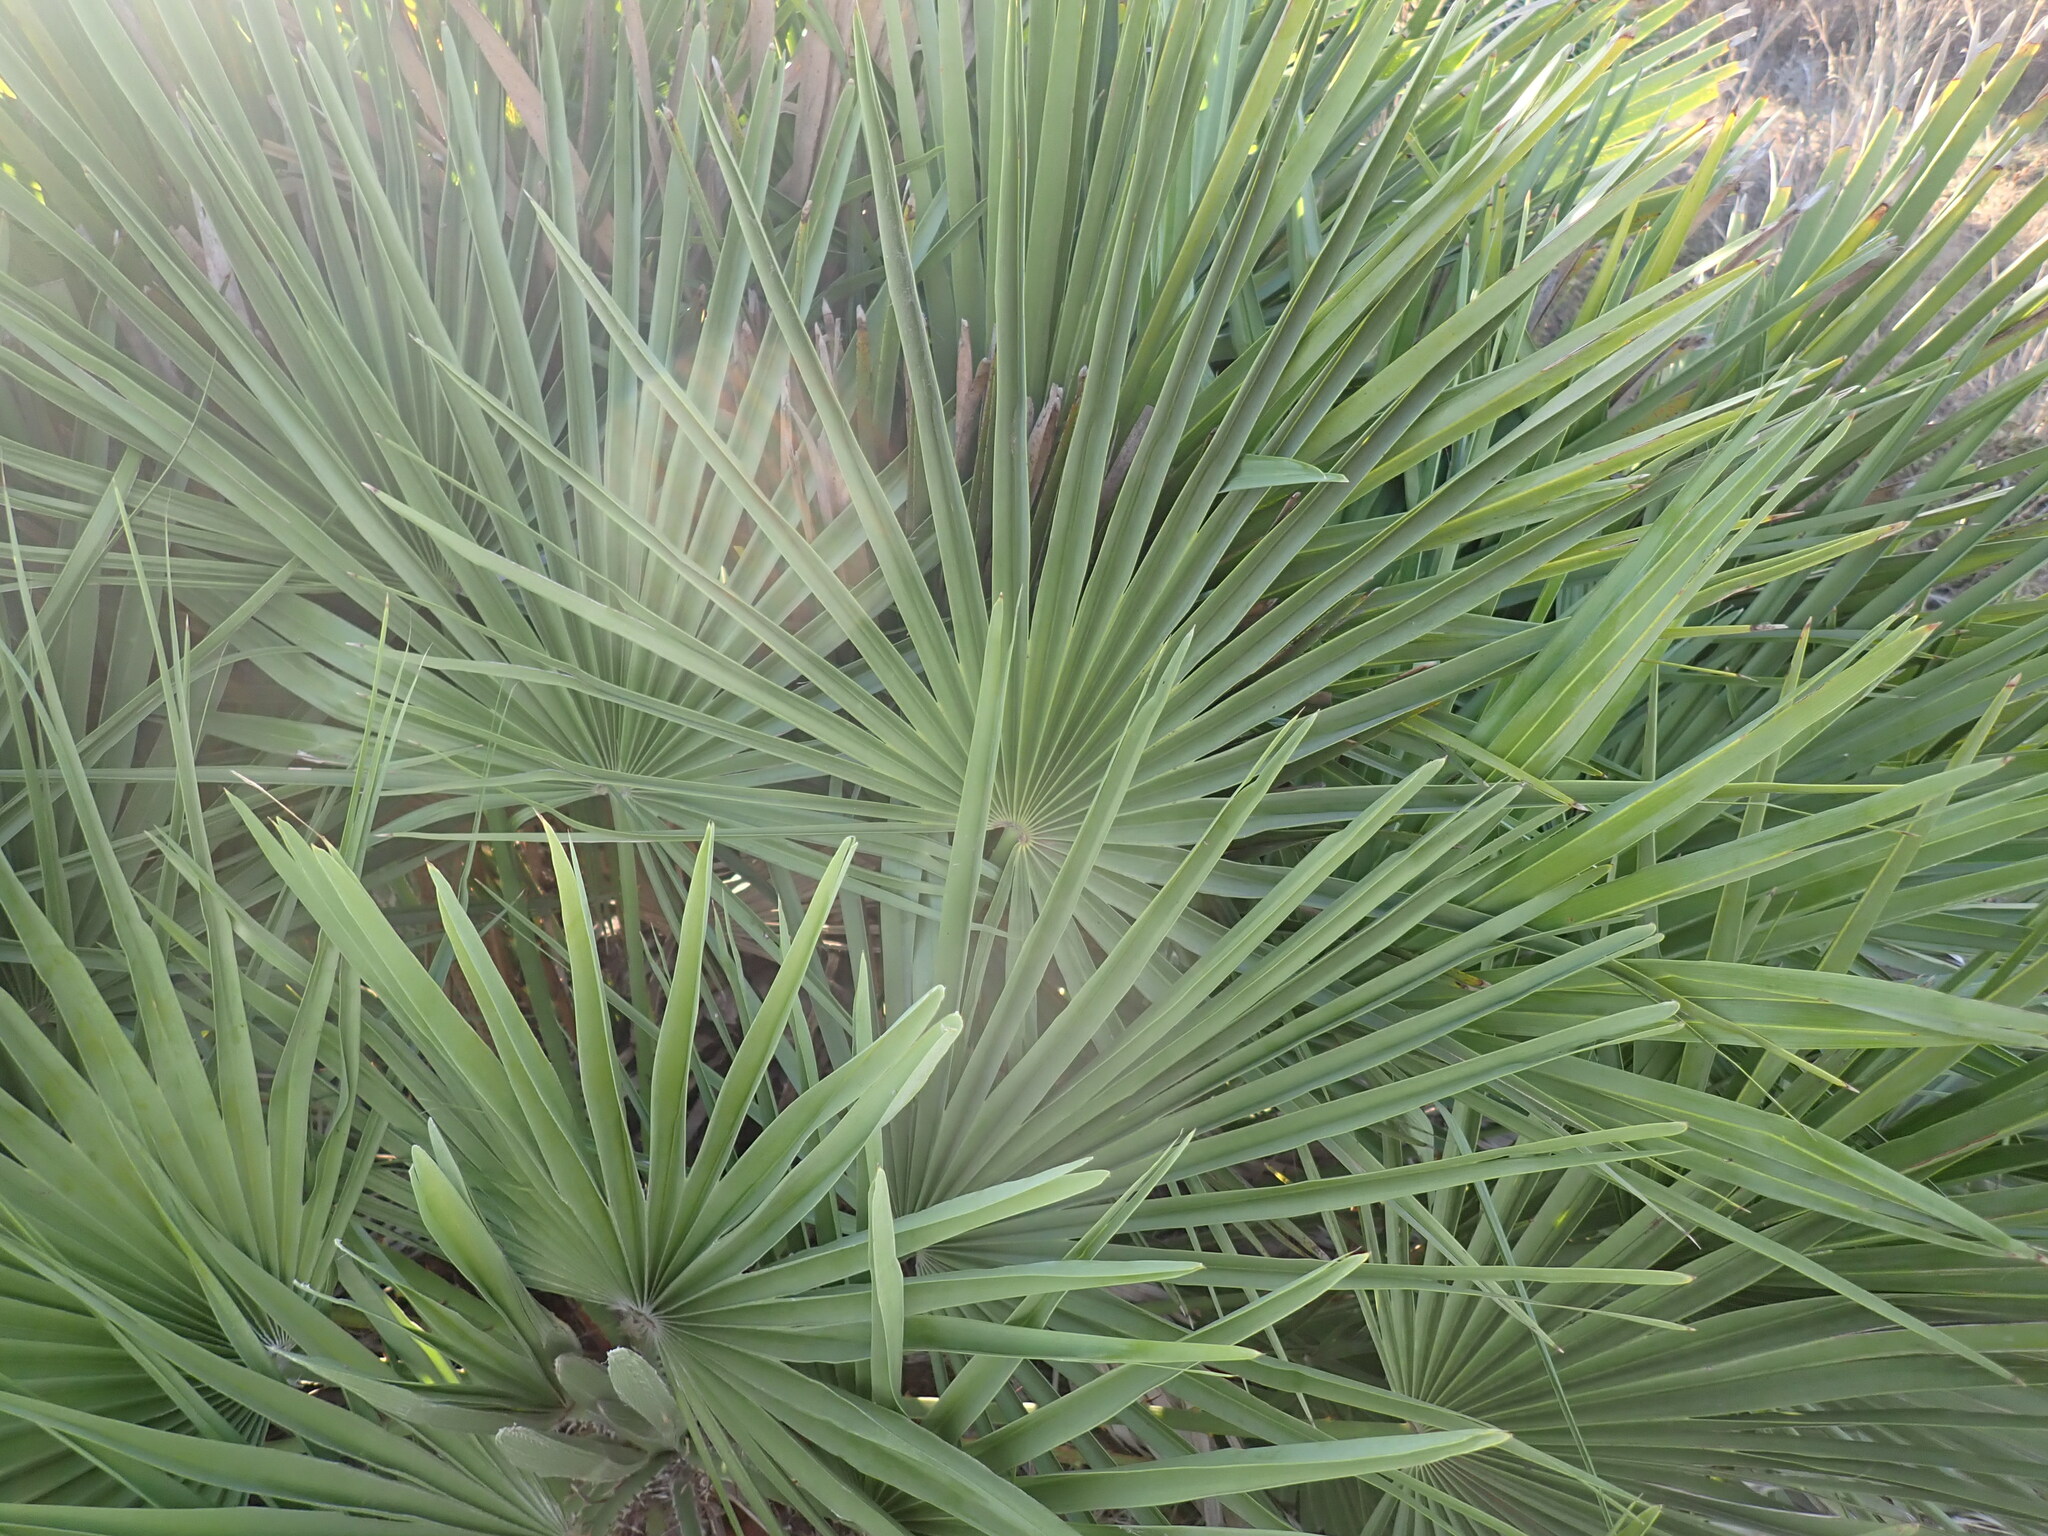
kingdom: Plantae
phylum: Tracheophyta
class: Liliopsida
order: Arecales
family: Arecaceae
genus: Chamaerops
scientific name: Chamaerops humilis
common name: Dwarf fan palm
